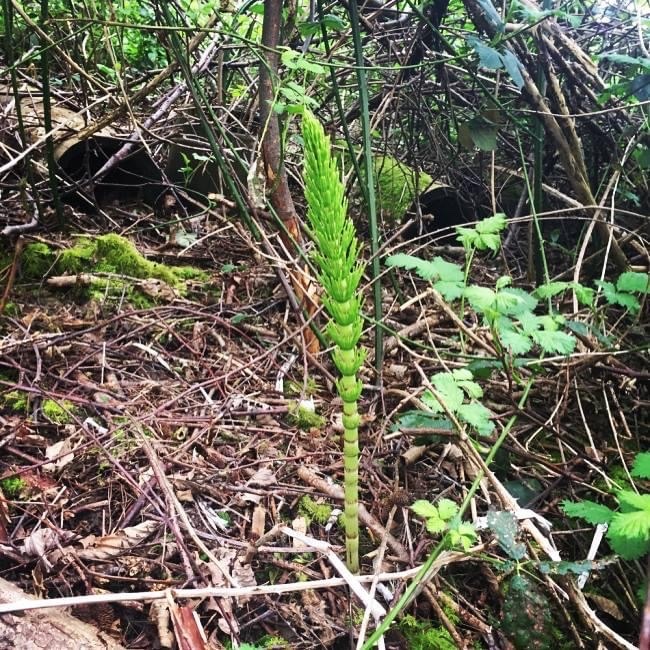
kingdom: Plantae
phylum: Tracheophyta
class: Polypodiopsida
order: Equisetales
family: Equisetaceae
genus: Equisetum
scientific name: Equisetum braunii
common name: Braun's horsetail
